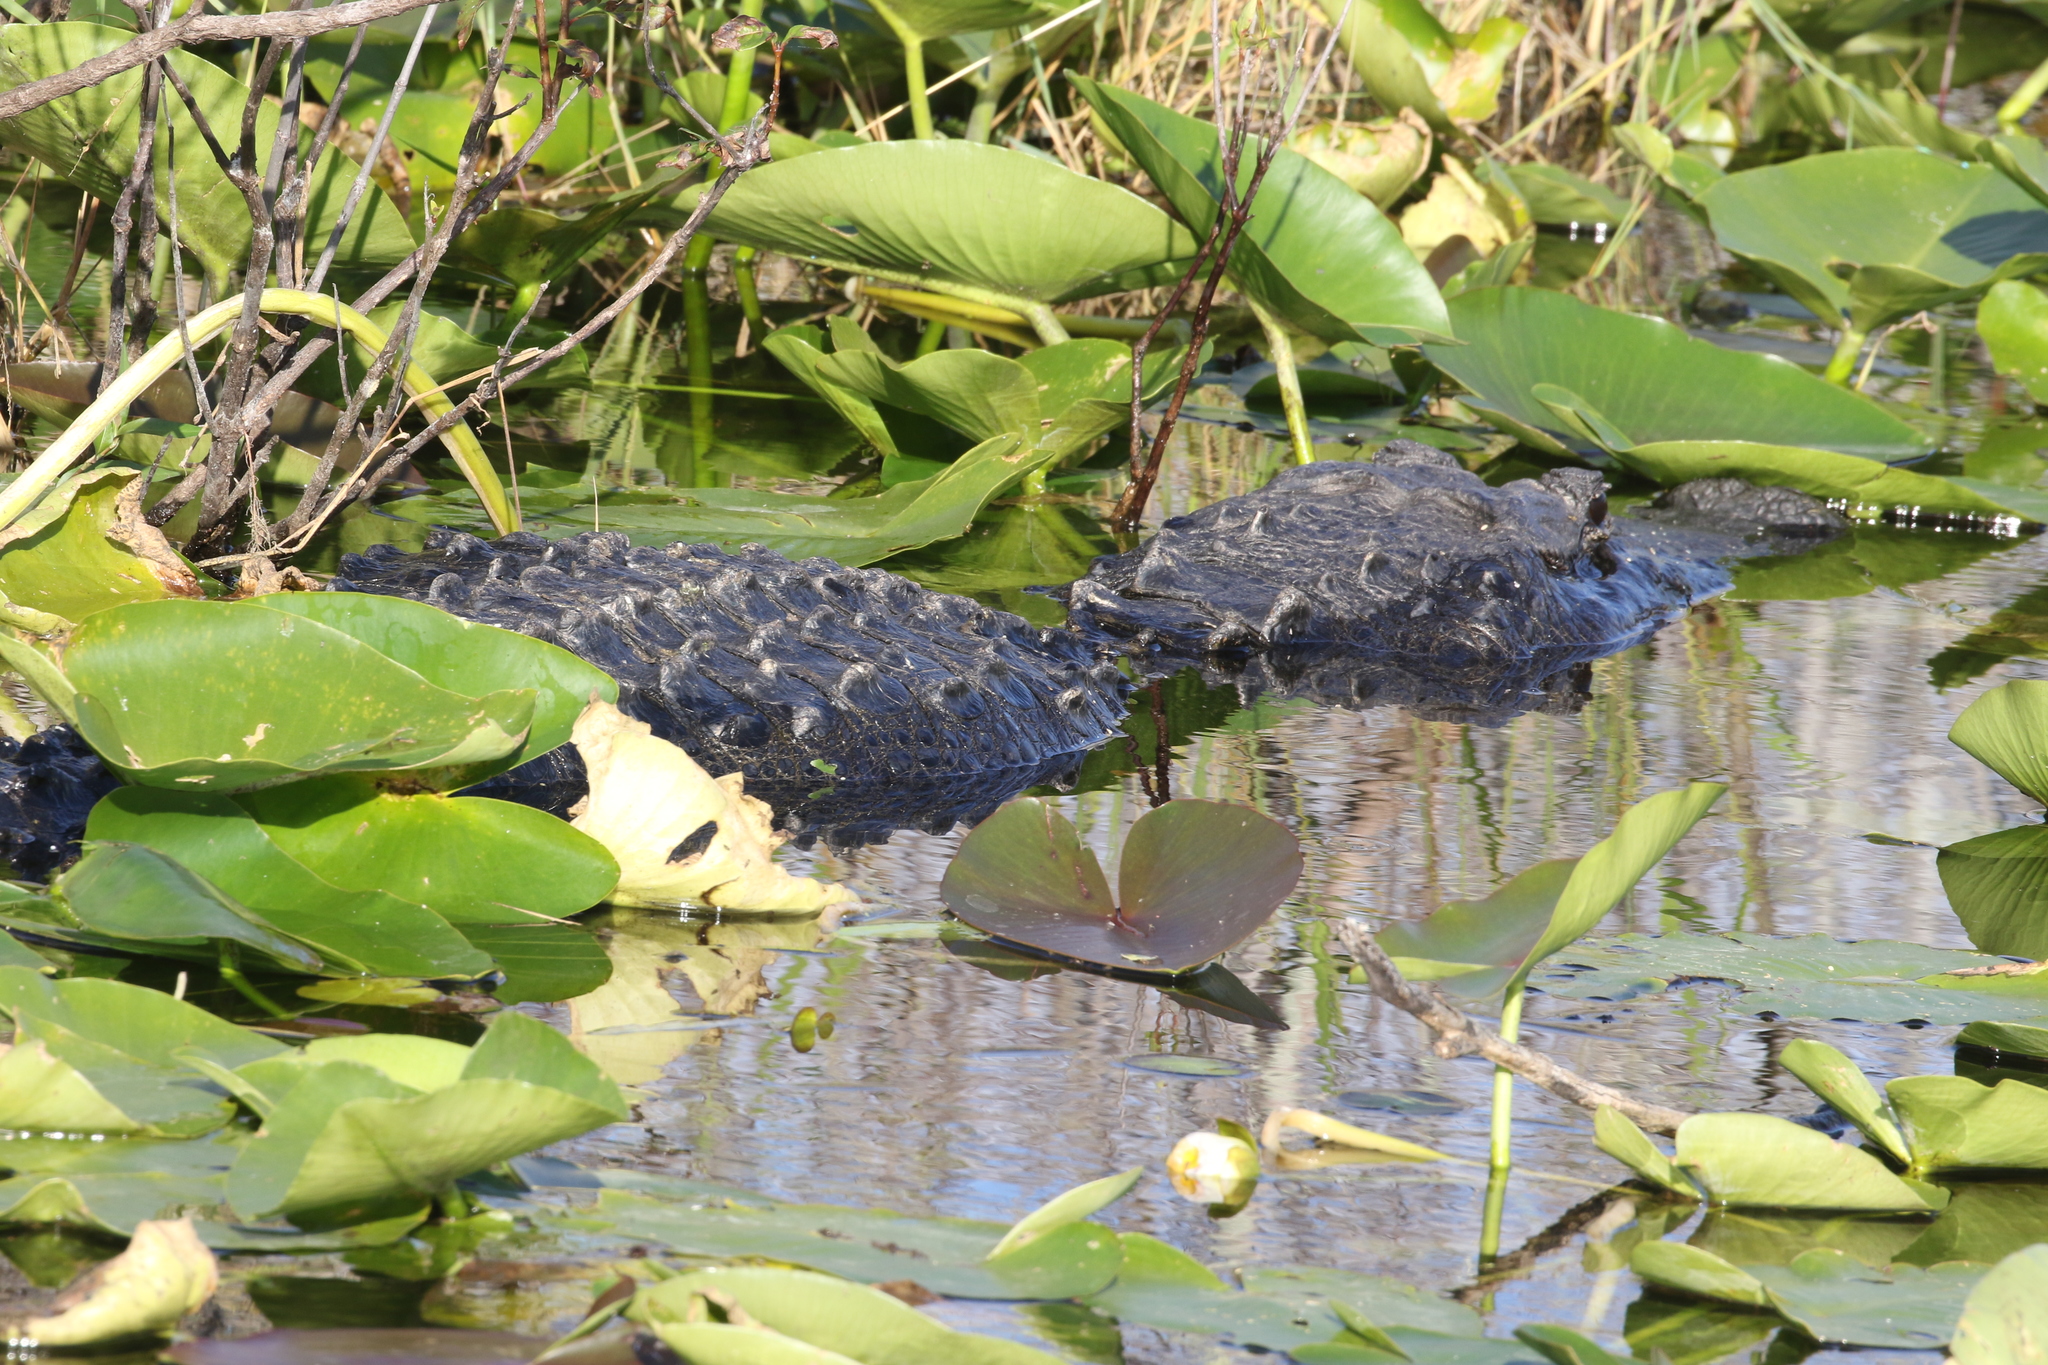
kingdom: Animalia
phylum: Chordata
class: Crocodylia
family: Alligatoridae
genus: Alligator
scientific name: Alligator mississippiensis
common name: American alligator
